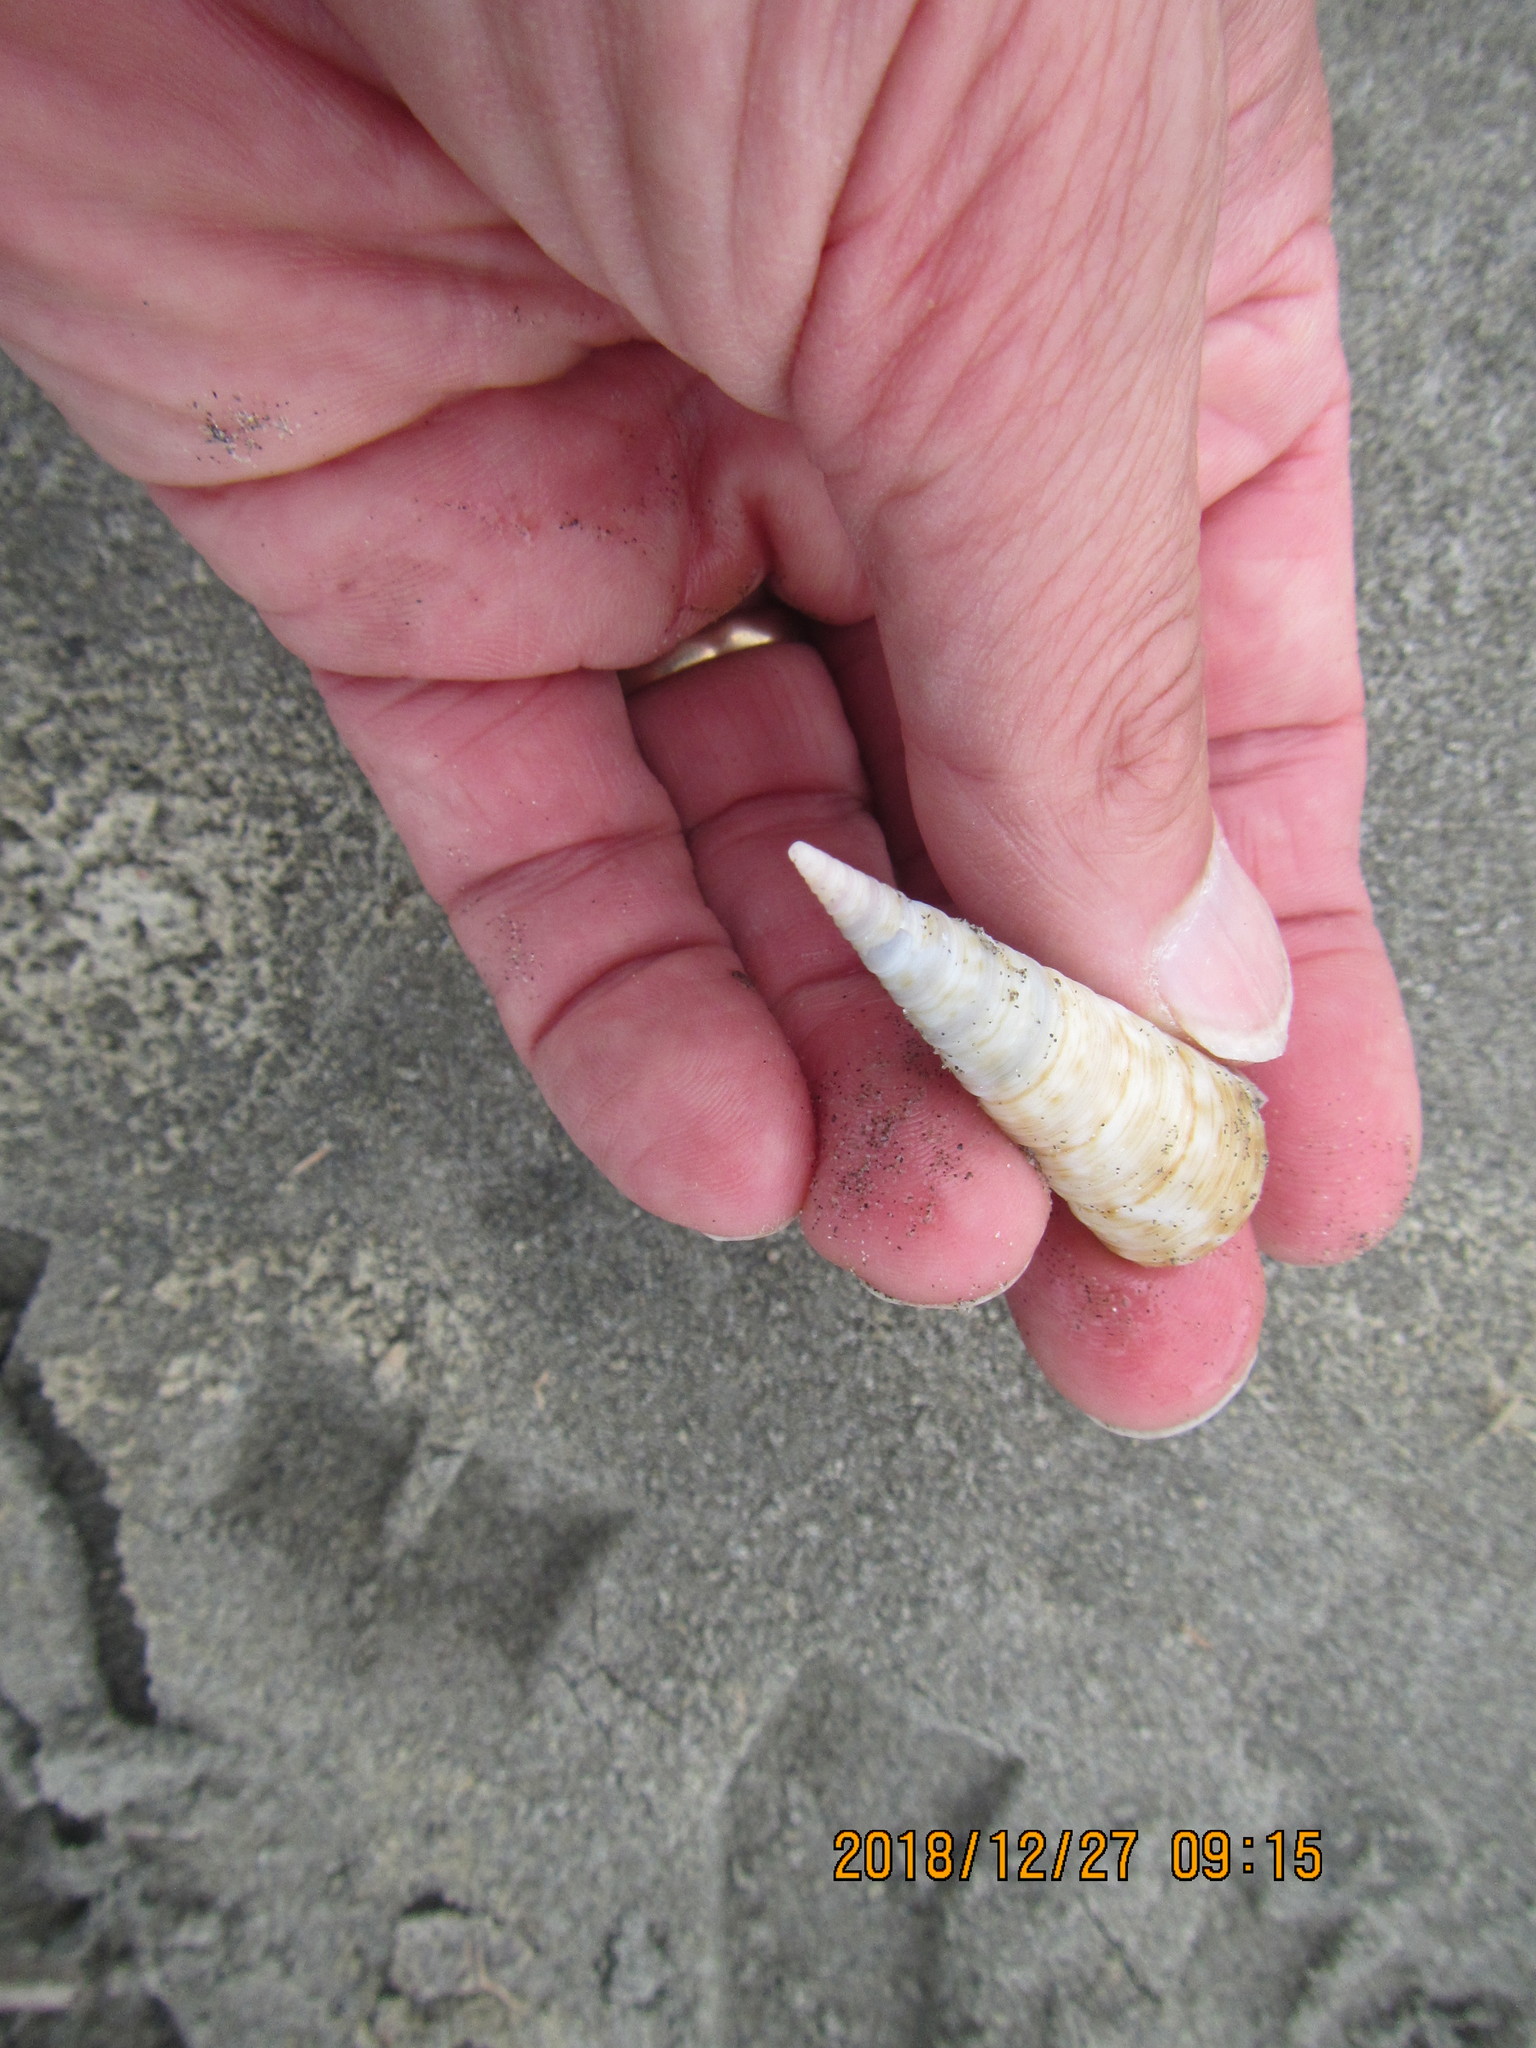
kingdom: Animalia
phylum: Mollusca
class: Gastropoda
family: Turritellidae
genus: Maoricolpus
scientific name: Maoricolpus roseus
